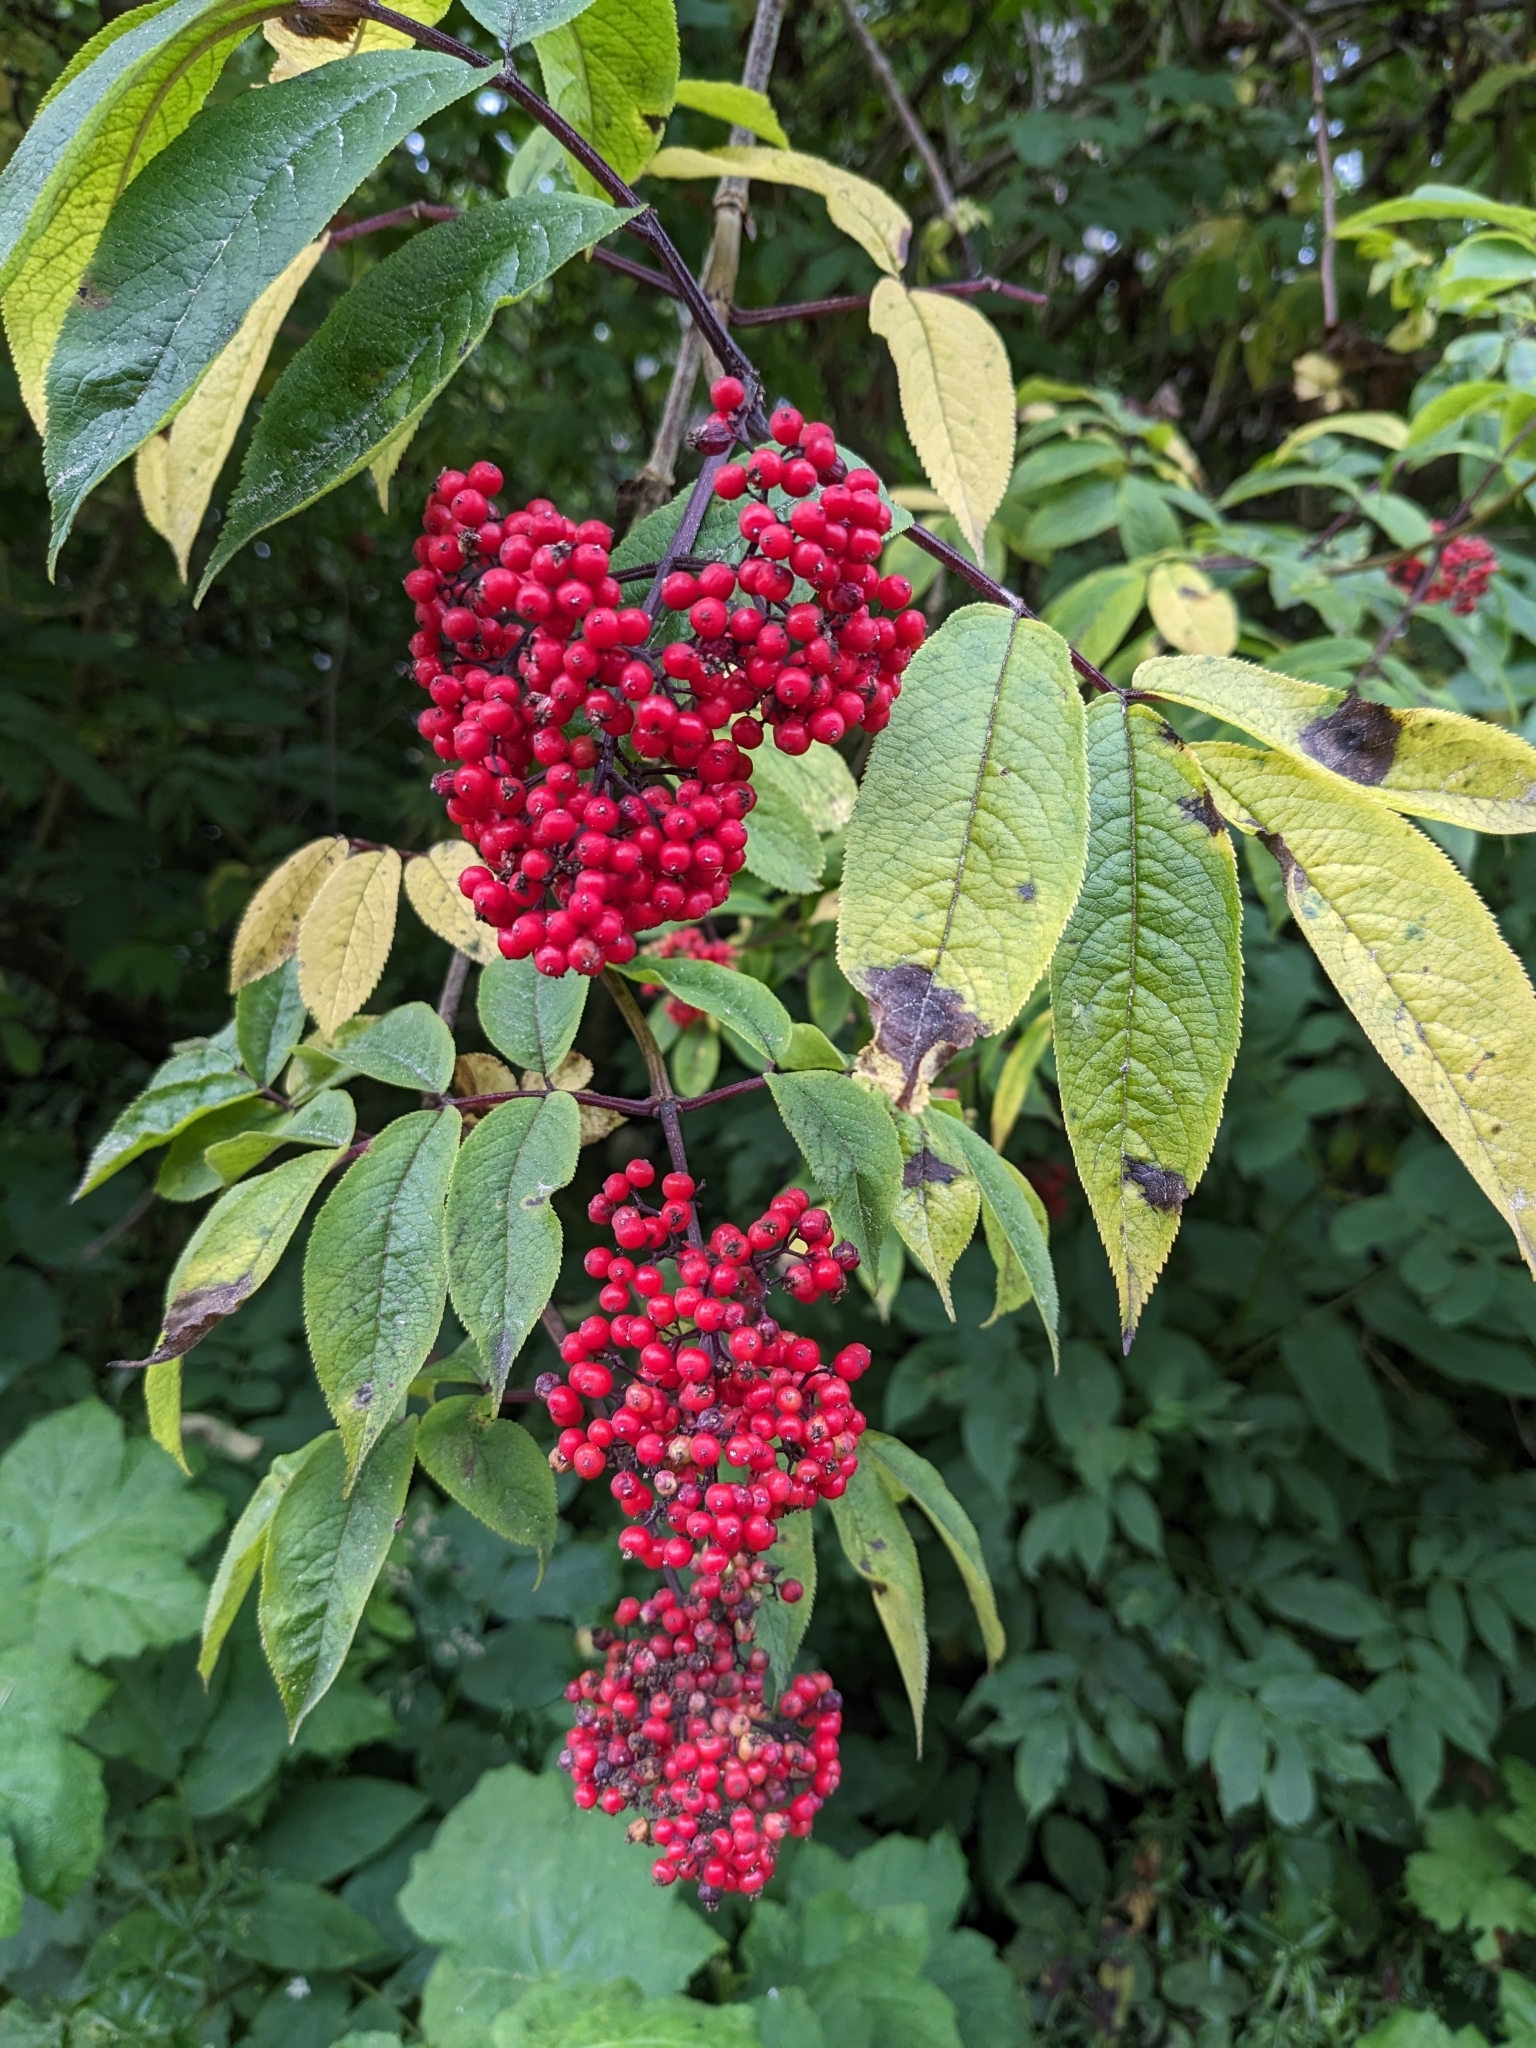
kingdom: Plantae
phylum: Tracheophyta
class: Magnoliopsida
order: Dipsacales
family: Viburnaceae
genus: Sambucus
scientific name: Sambucus racemosa
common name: Red-berried elder
